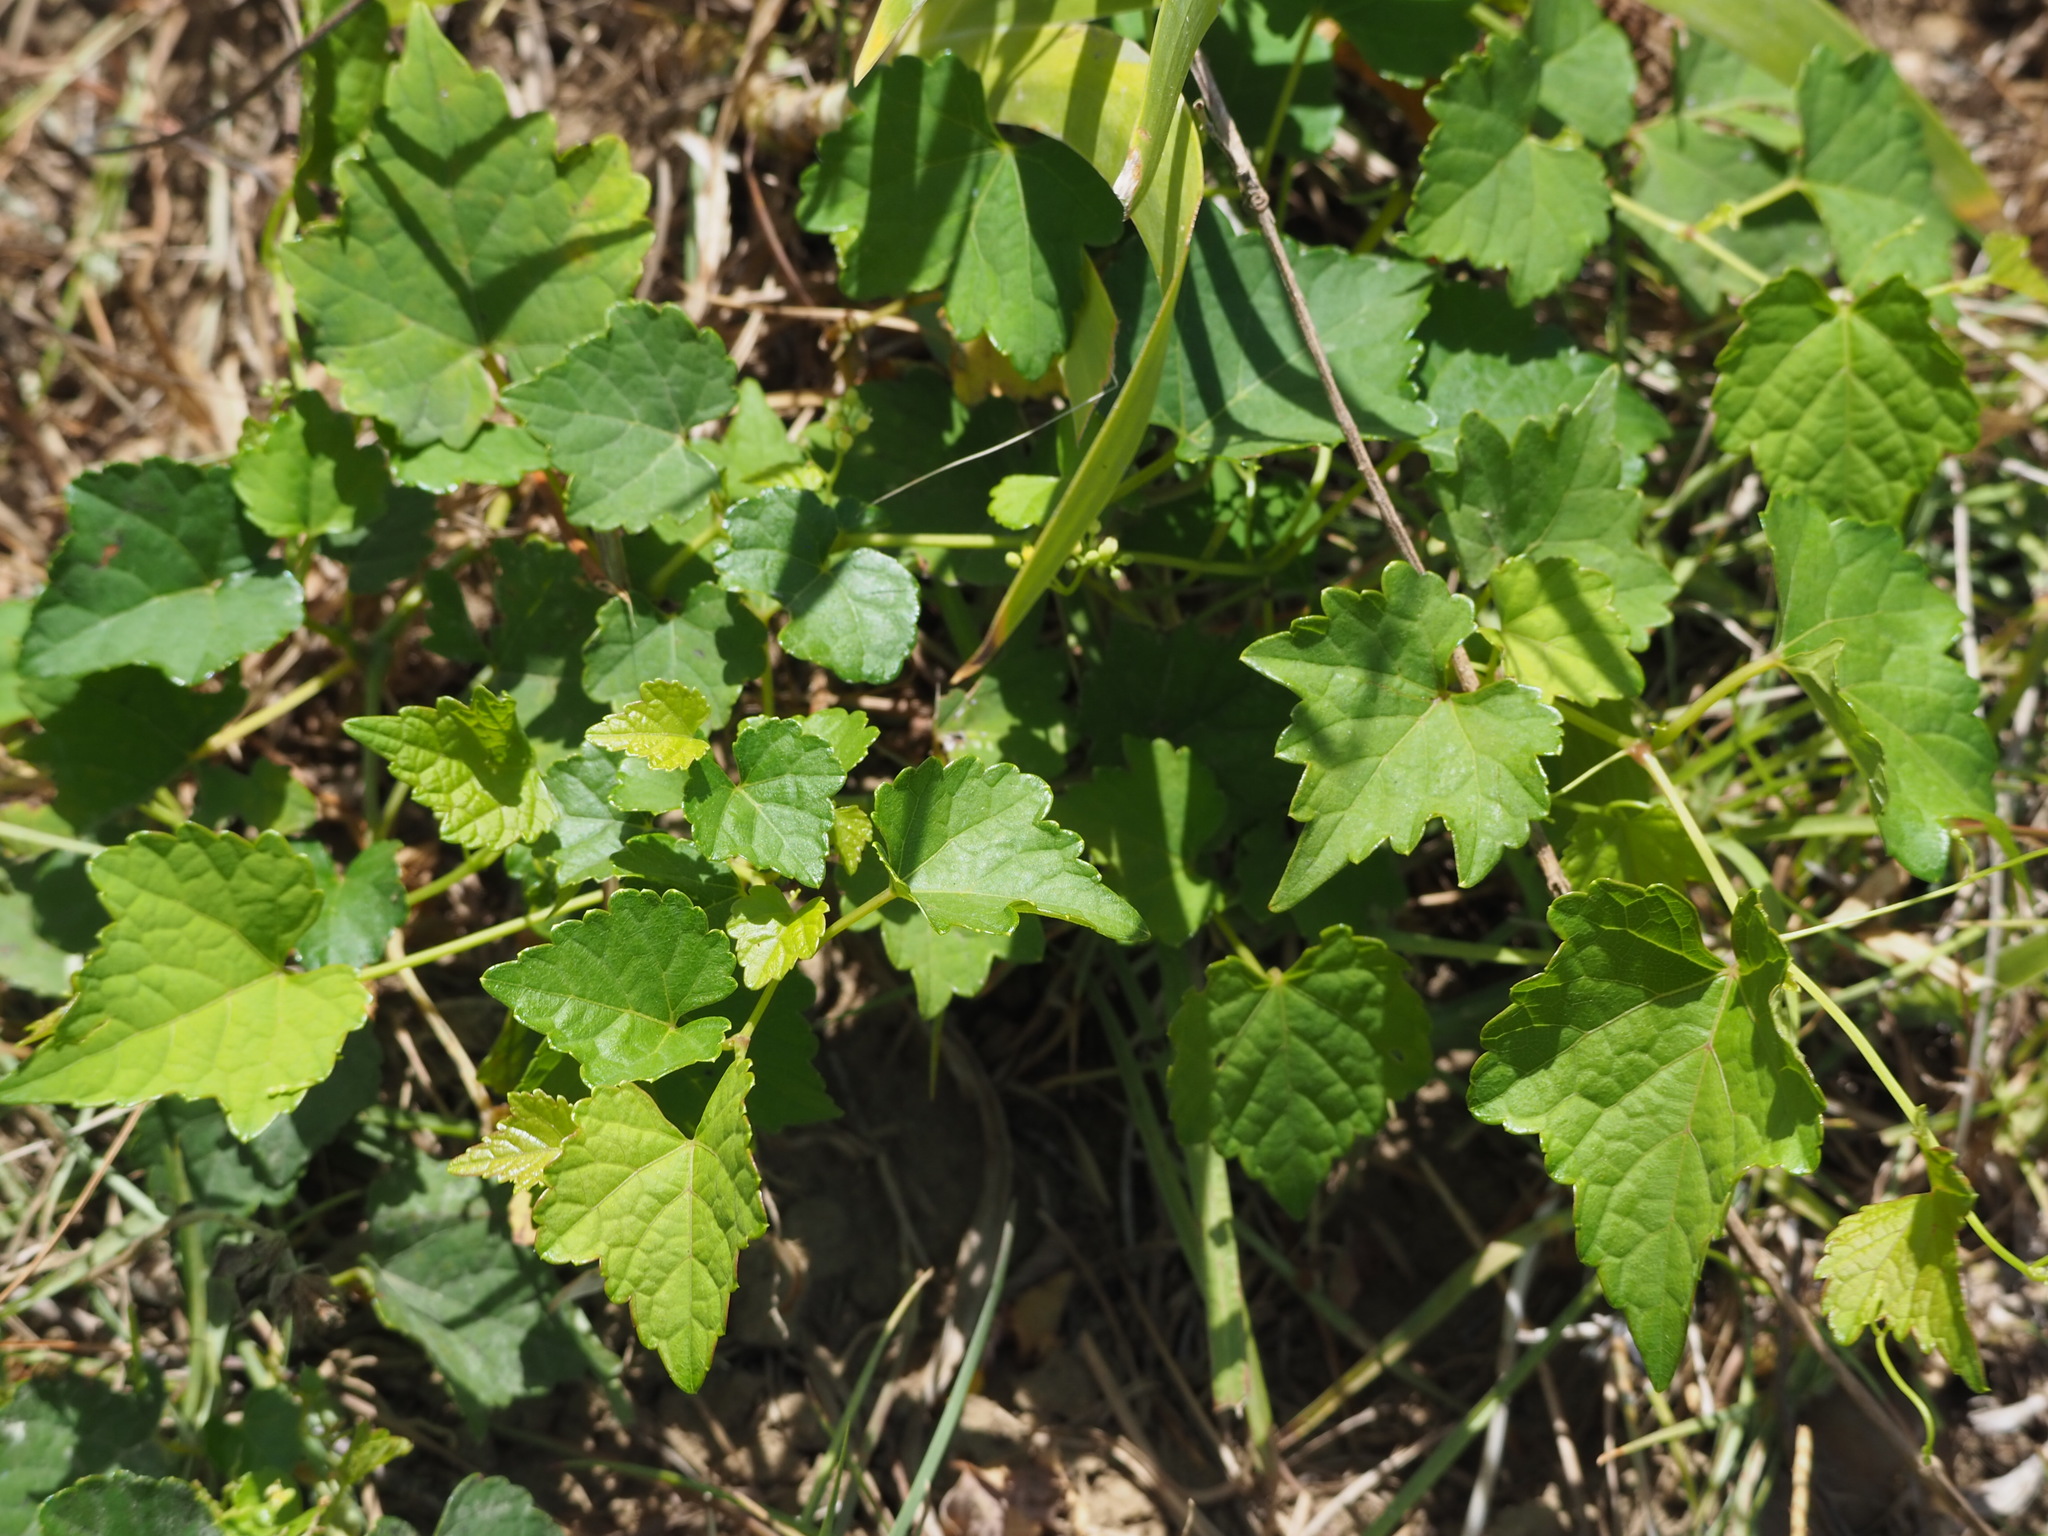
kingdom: Plantae
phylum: Tracheophyta
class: Magnoliopsida
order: Vitales
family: Vitaceae
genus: Ampelopsis
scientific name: Ampelopsis glandulosa
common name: Amur peppervine
